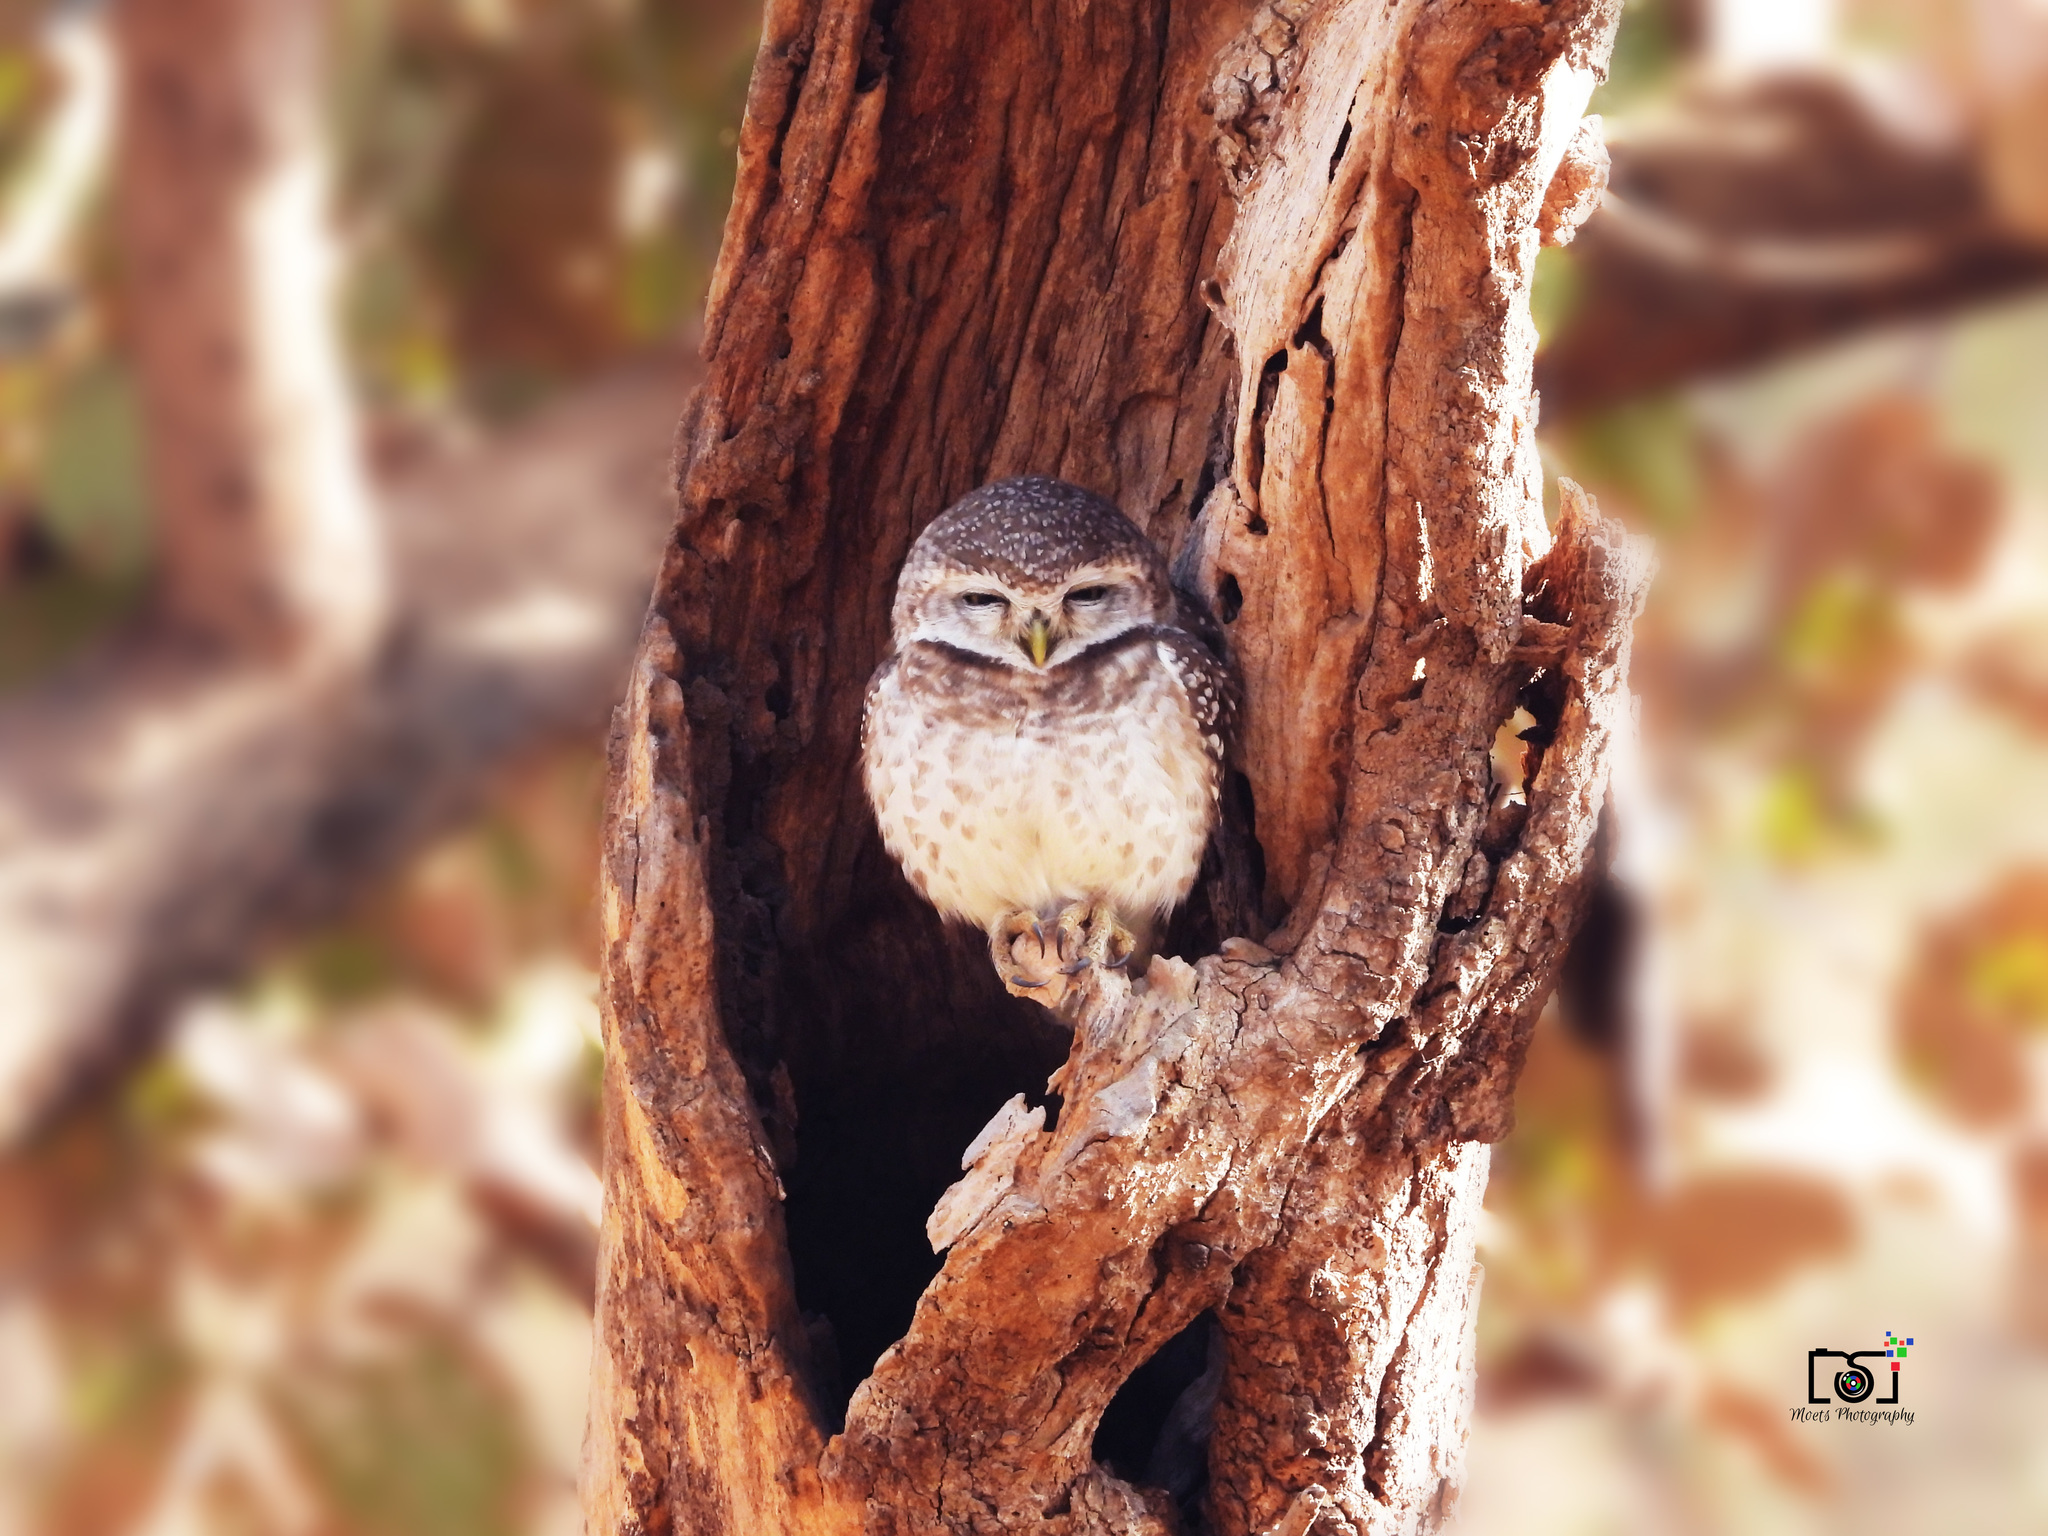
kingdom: Animalia
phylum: Chordata
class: Aves
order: Strigiformes
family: Strigidae
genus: Athene
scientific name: Athene brama
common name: Spotted owlet
